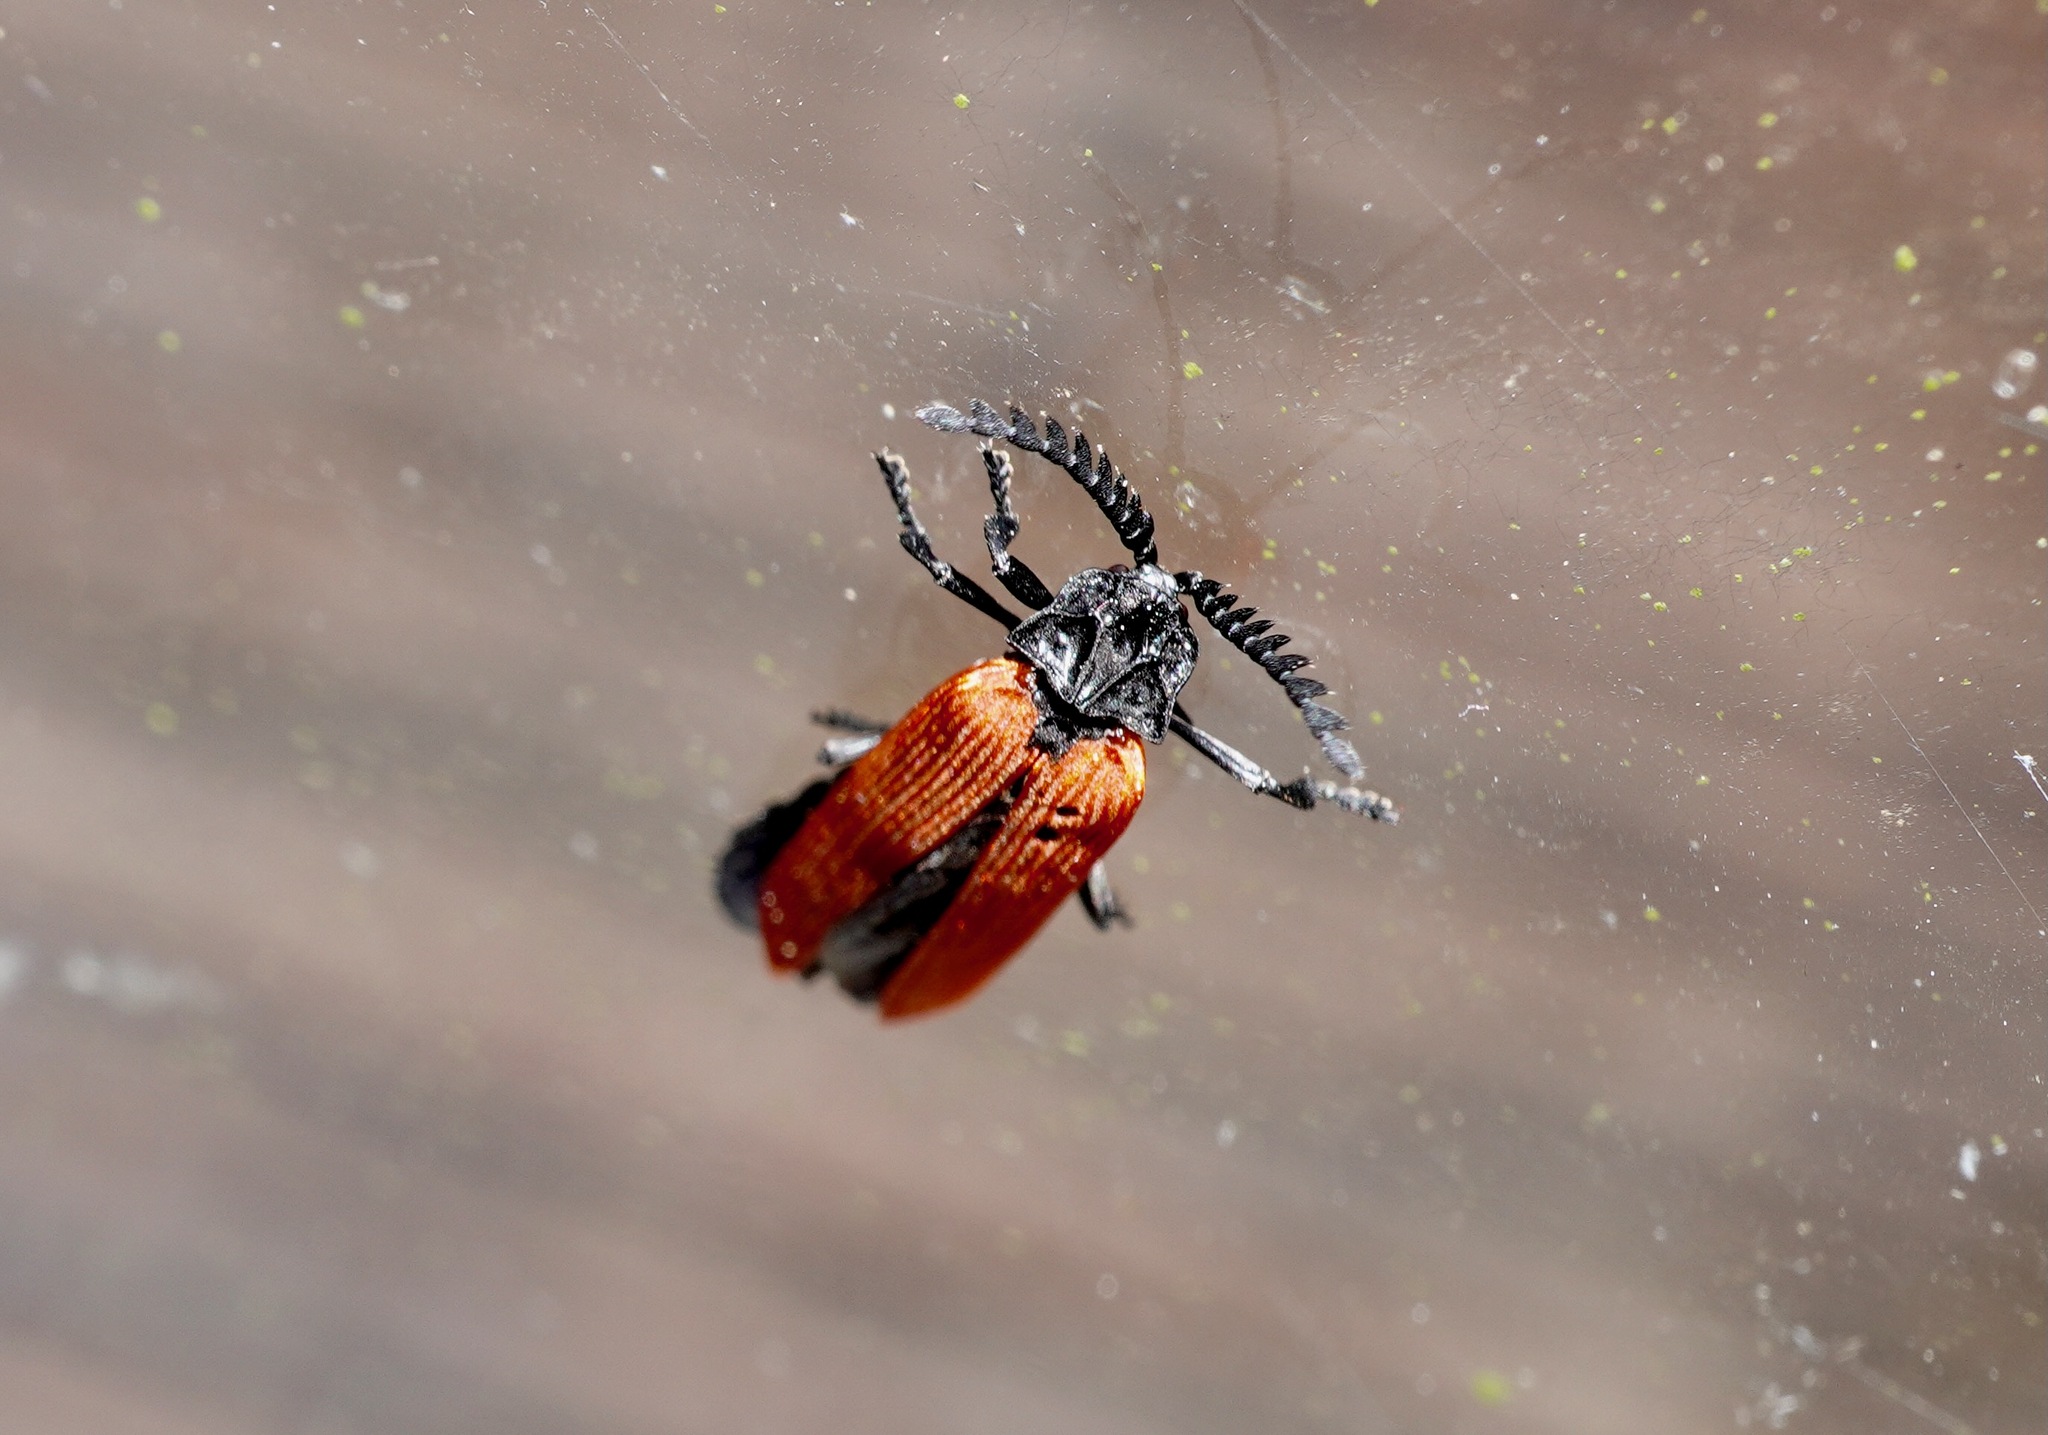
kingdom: Animalia
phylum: Arthropoda
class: Insecta
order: Coleoptera
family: Lycidae
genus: Porrostoma
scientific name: Porrostoma rufipenne
